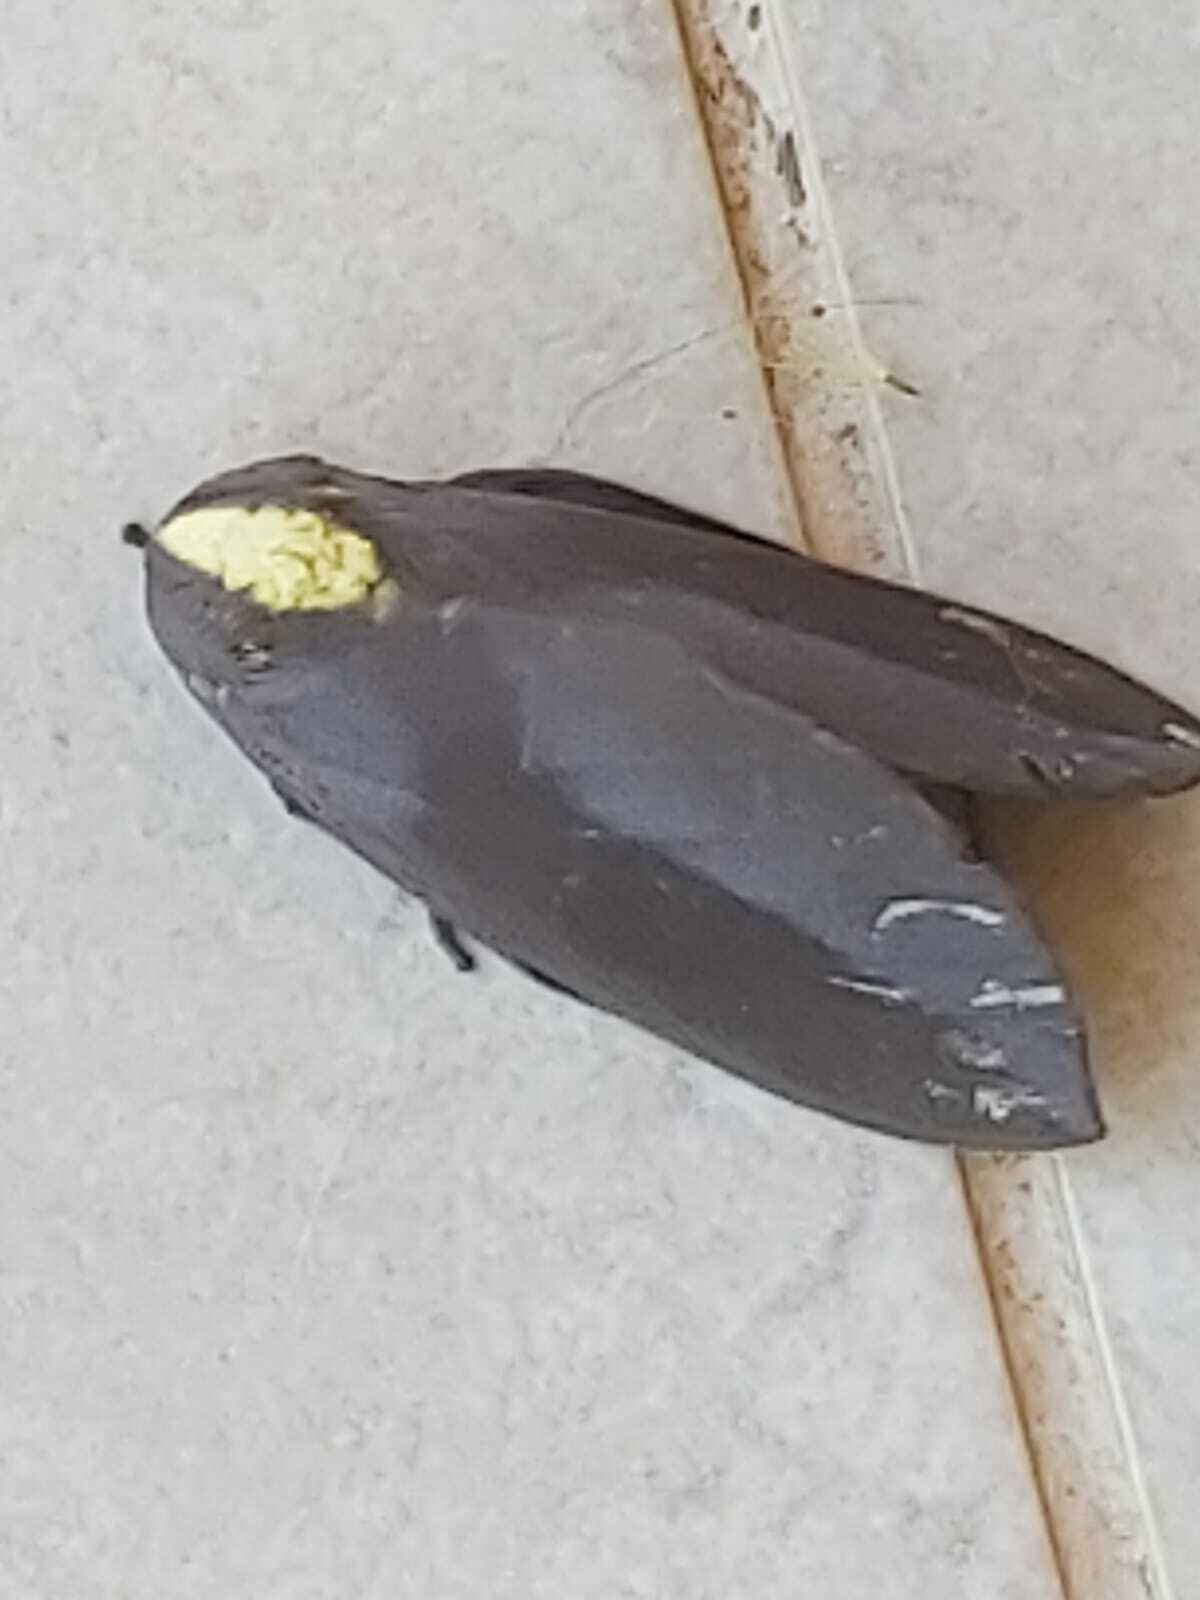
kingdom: Animalia
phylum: Arthropoda
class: Insecta
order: Lepidoptera
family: Saturniidae
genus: Adelowalkeria
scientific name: Adelowalkeria flavosignata
